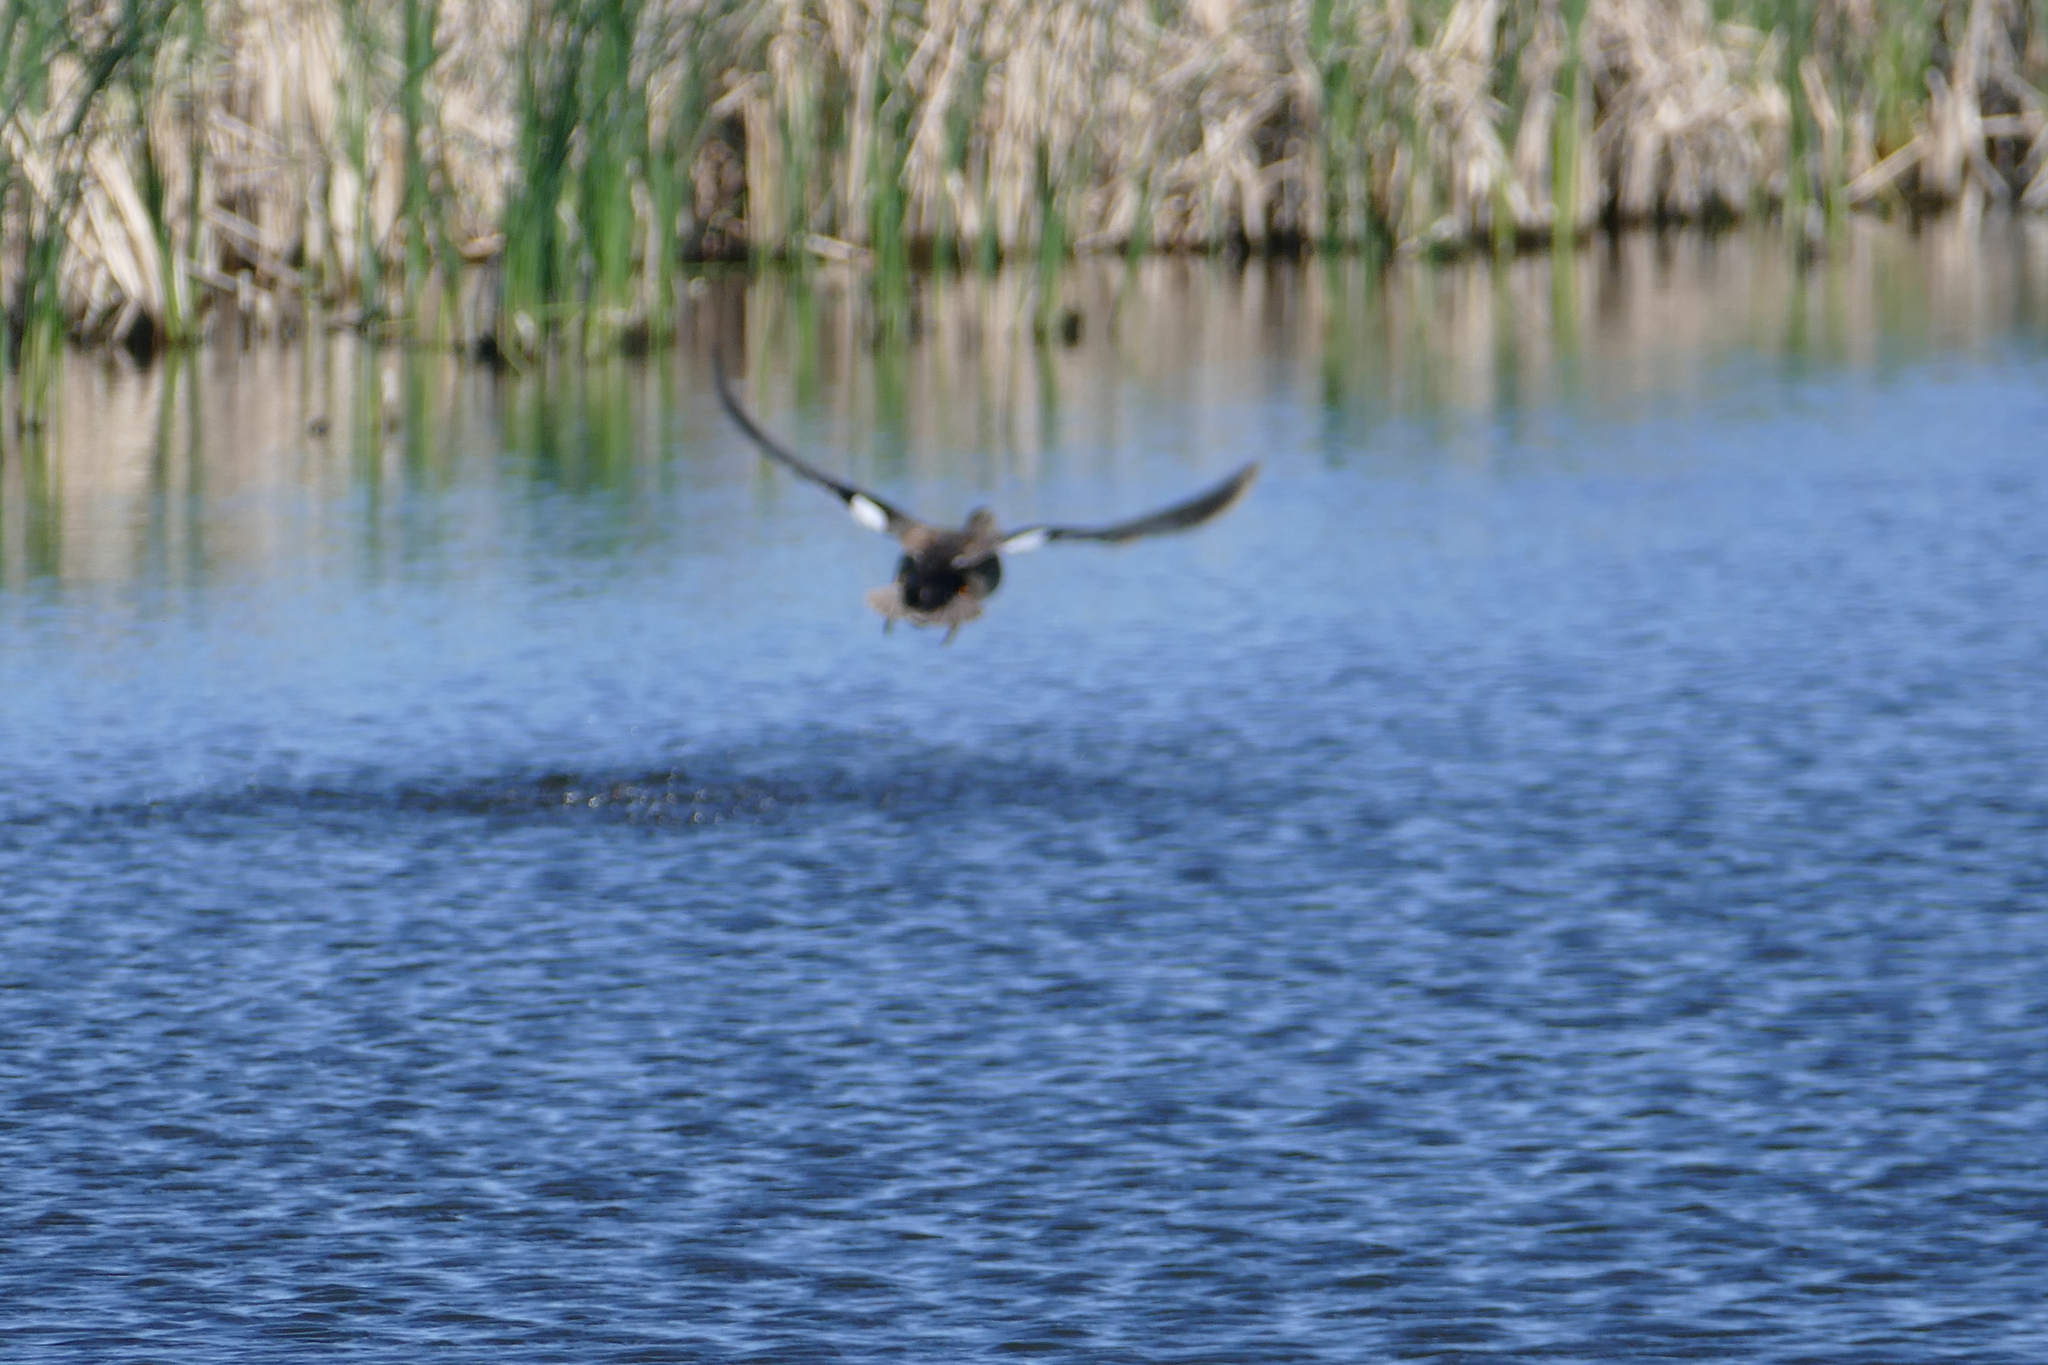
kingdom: Animalia
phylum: Chordata
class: Aves
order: Anseriformes
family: Anatidae
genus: Mareca
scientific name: Mareca strepera
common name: Gadwall
